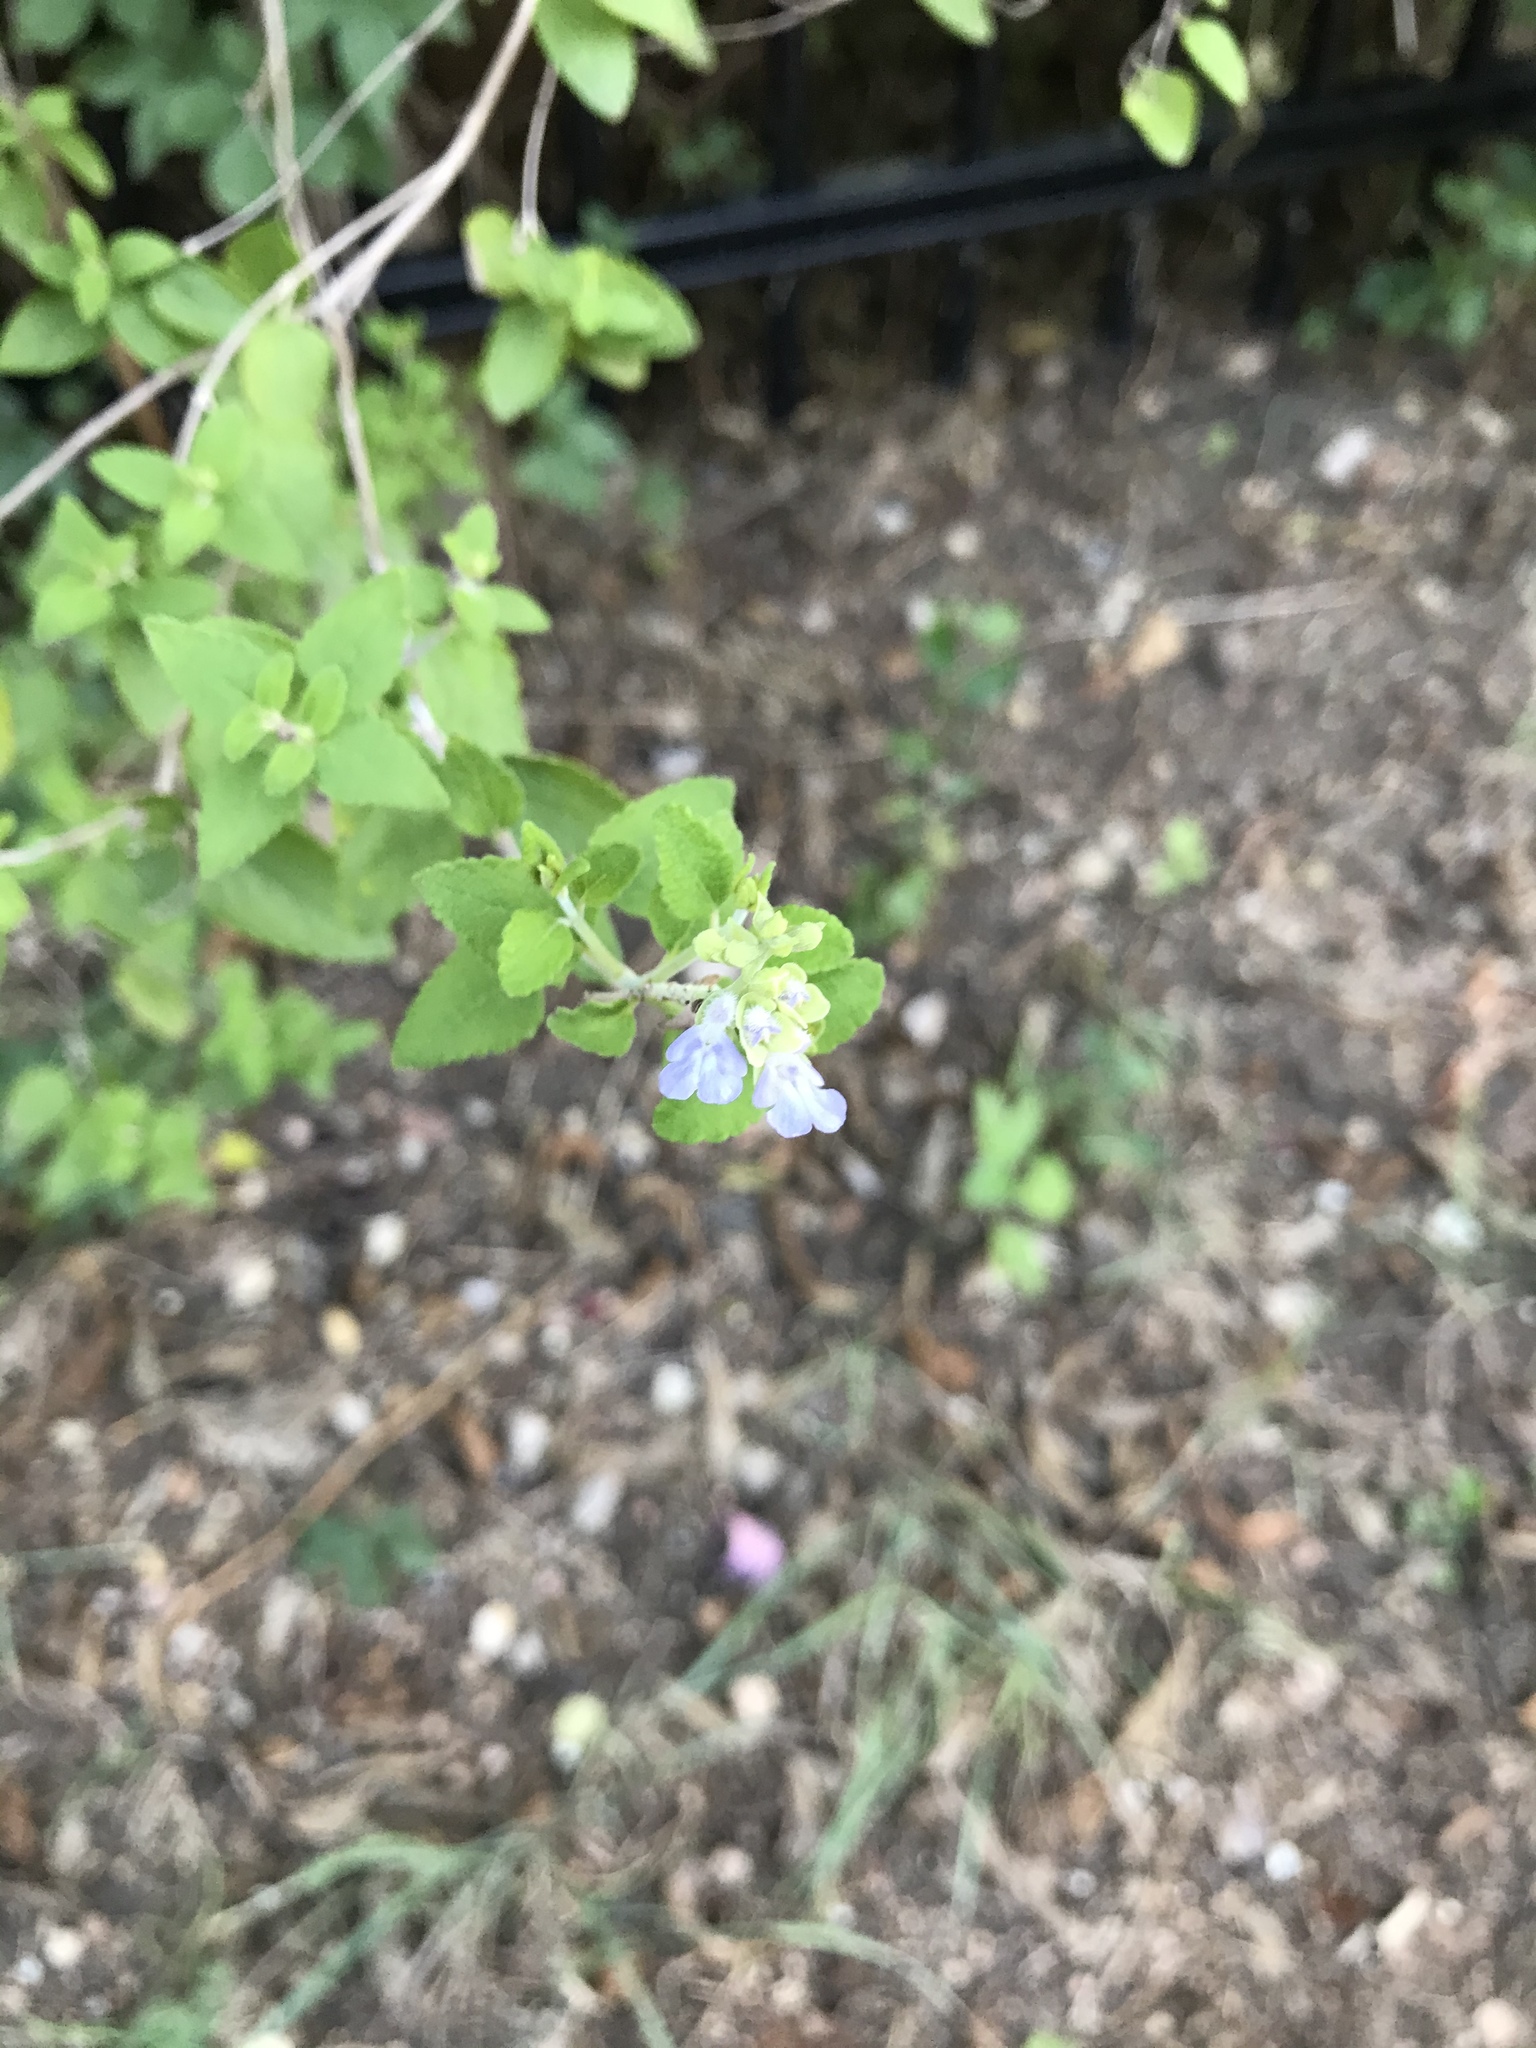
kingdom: Plantae
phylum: Tracheophyta
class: Magnoliopsida
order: Lamiales
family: Lamiaceae
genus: Salvia
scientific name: Salvia ballotiflora
